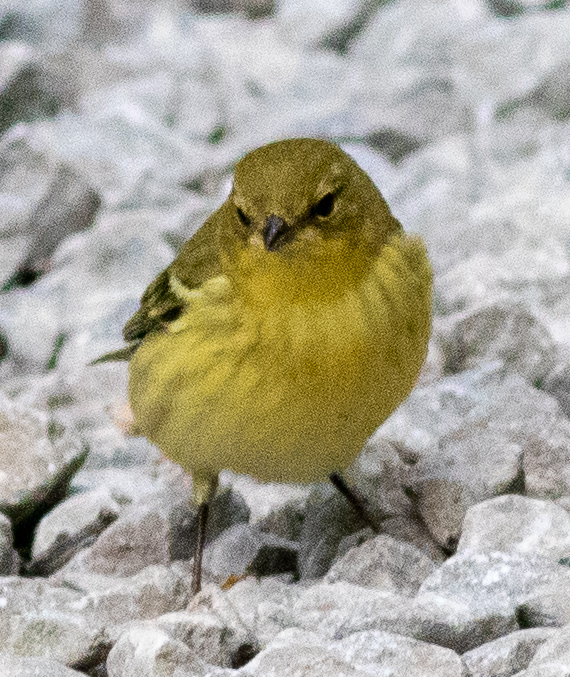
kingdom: Animalia
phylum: Chordata
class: Aves
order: Passeriformes
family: Parulidae
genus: Setophaga
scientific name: Setophaga striata
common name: Blackpoll warbler
